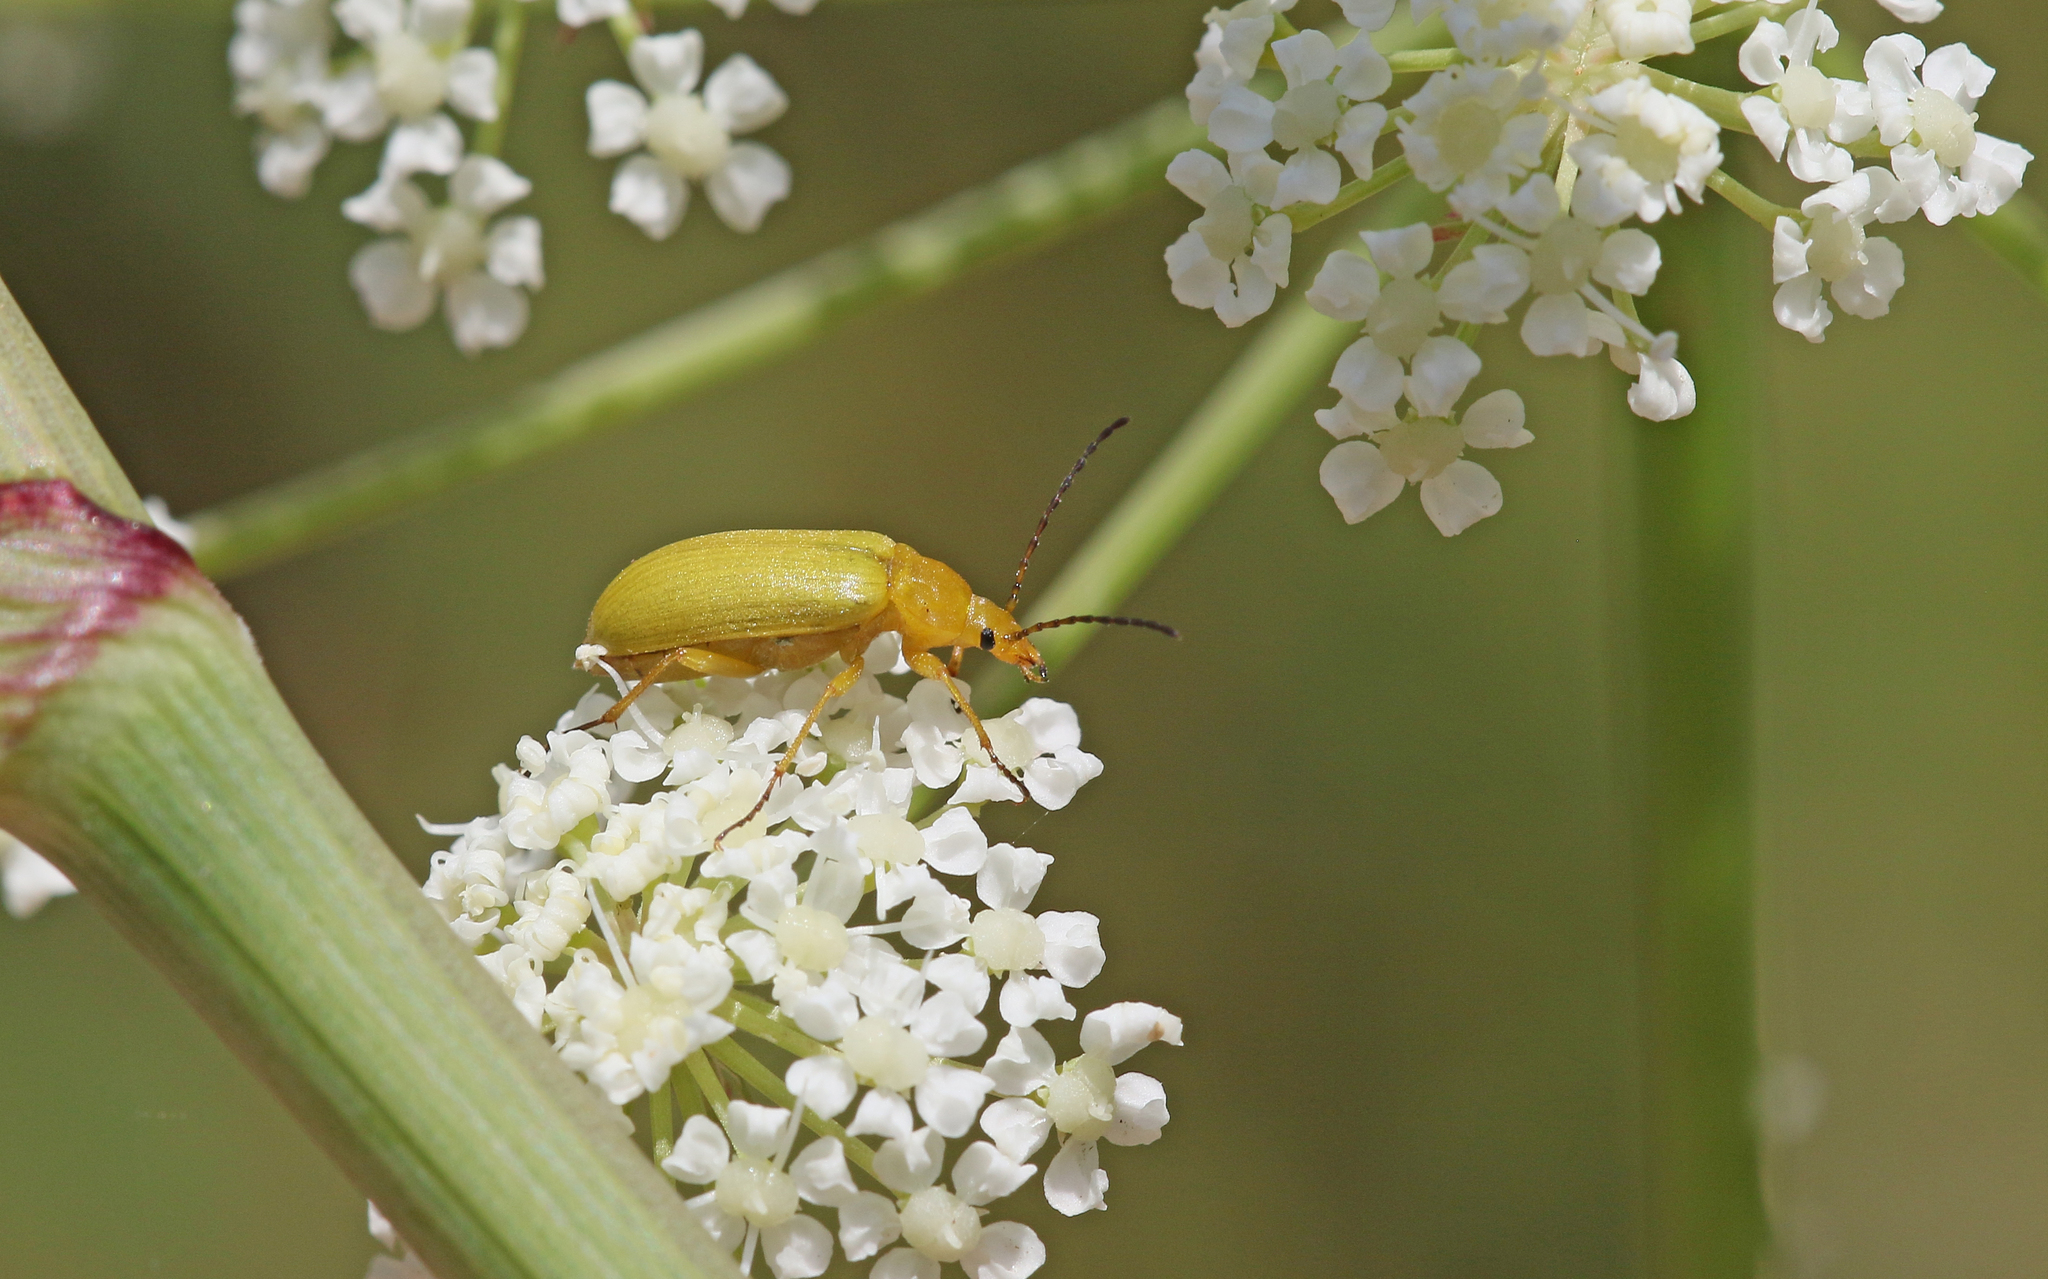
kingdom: Animalia
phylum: Arthropoda
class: Insecta
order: Coleoptera
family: Tenebrionidae
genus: Cteniopus
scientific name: Cteniopus sulphureus
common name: Sulphur beetle
